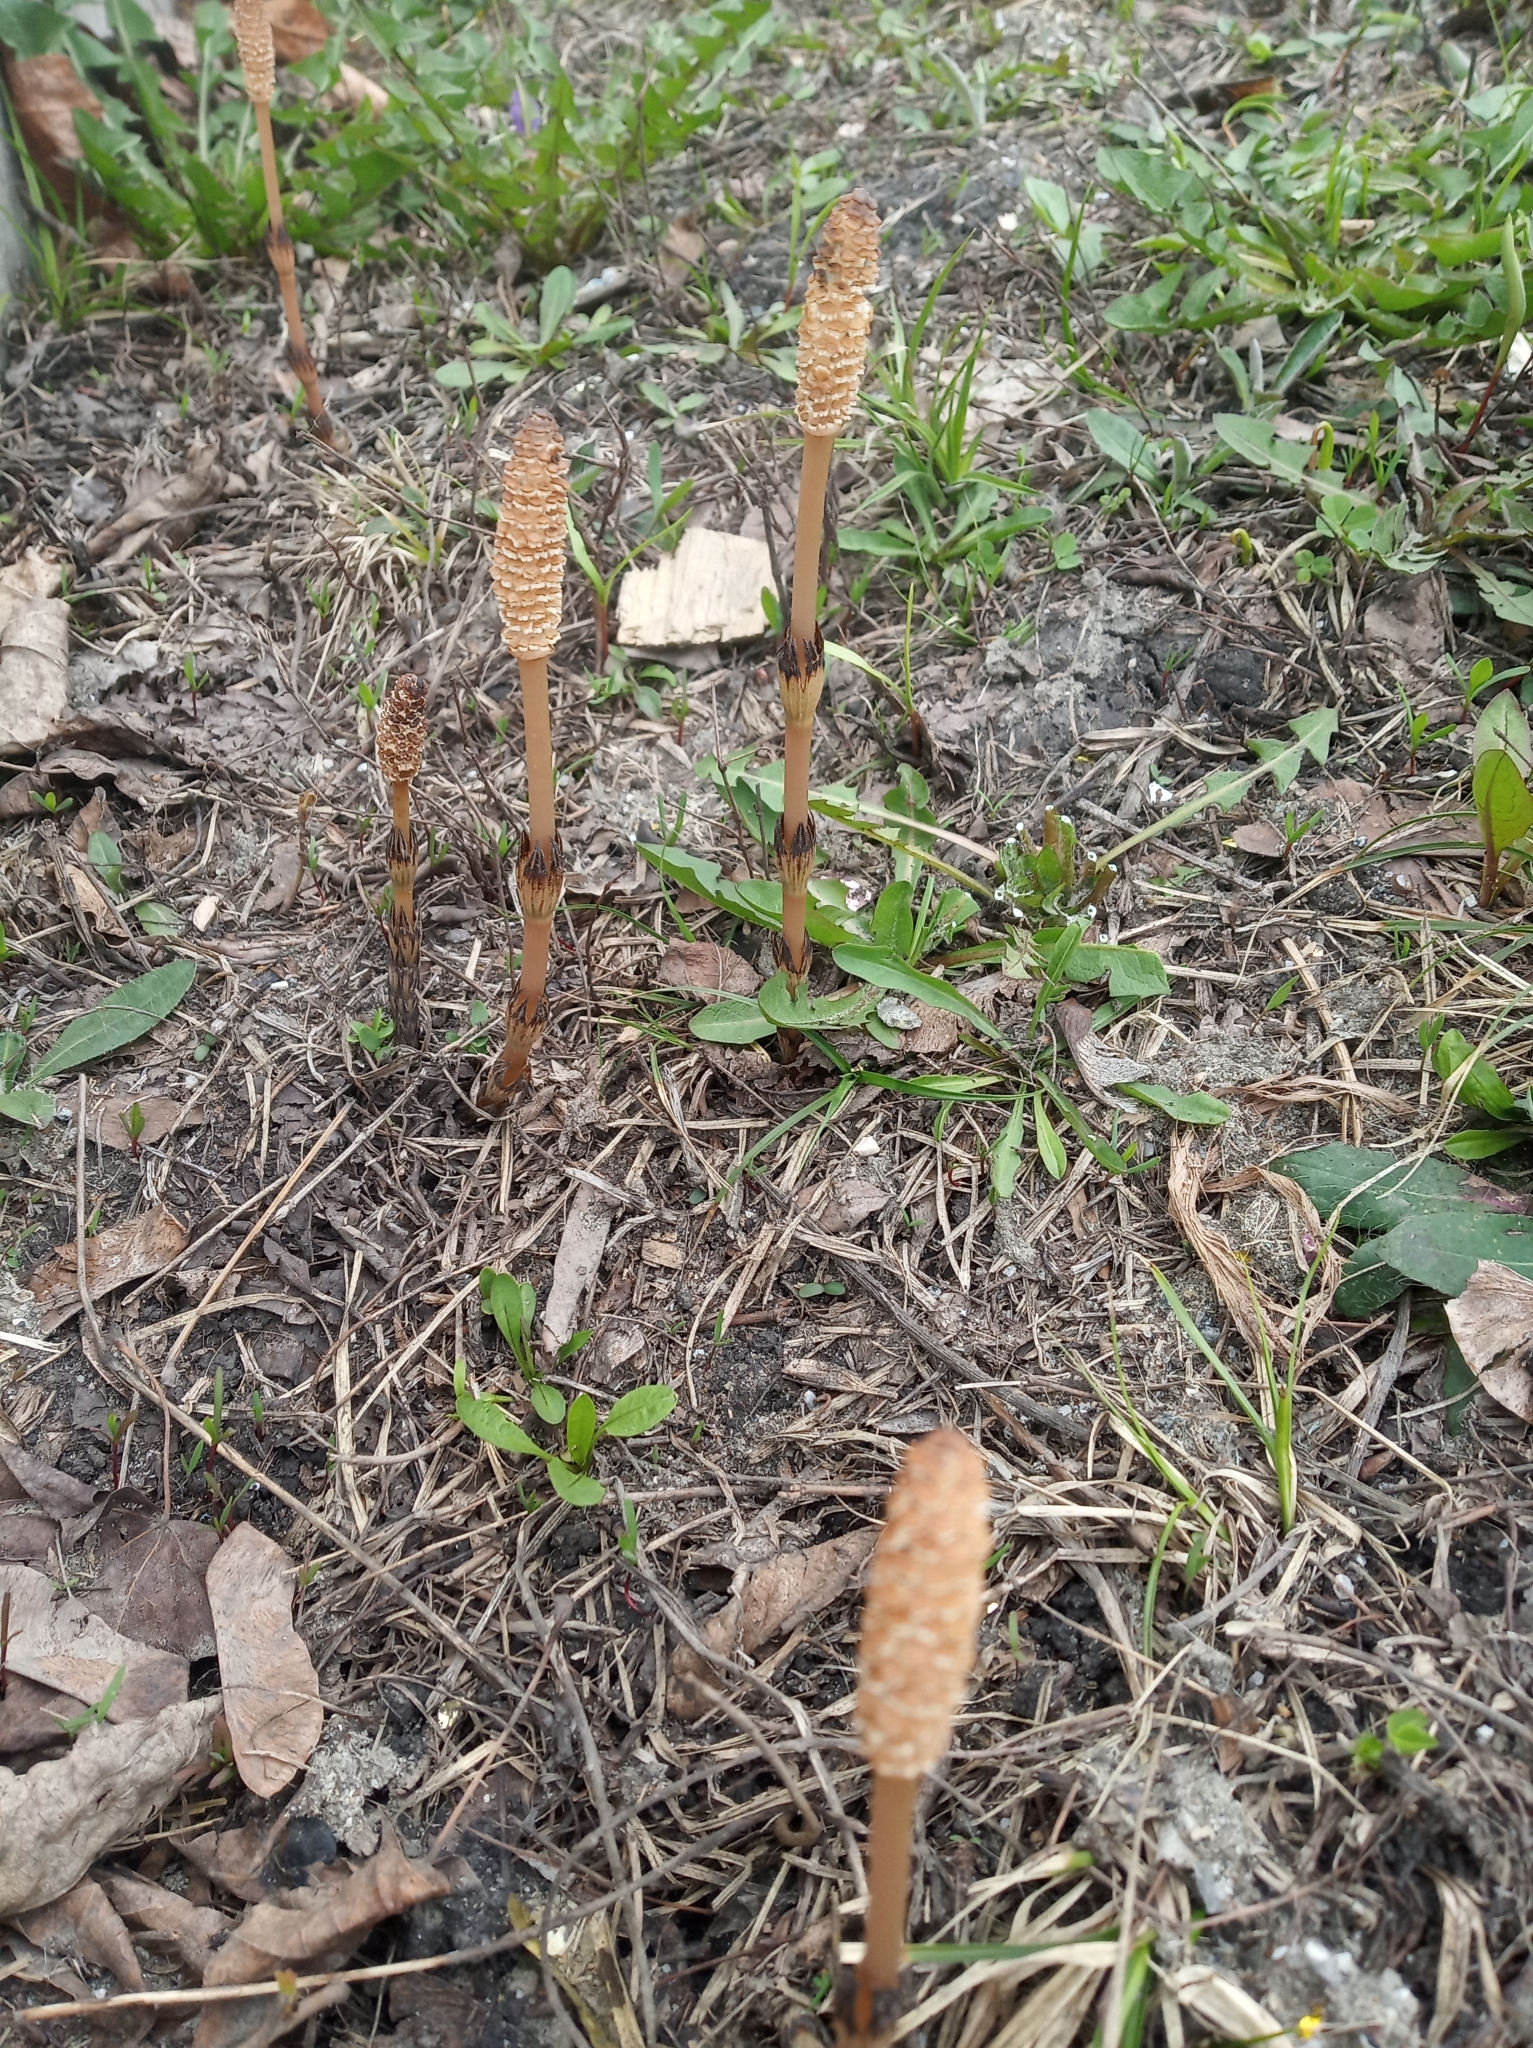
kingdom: Plantae
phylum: Tracheophyta
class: Polypodiopsida
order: Equisetales
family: Equisetaceae
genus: Equisetum
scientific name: Equisetum arvense
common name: Field horsetail
